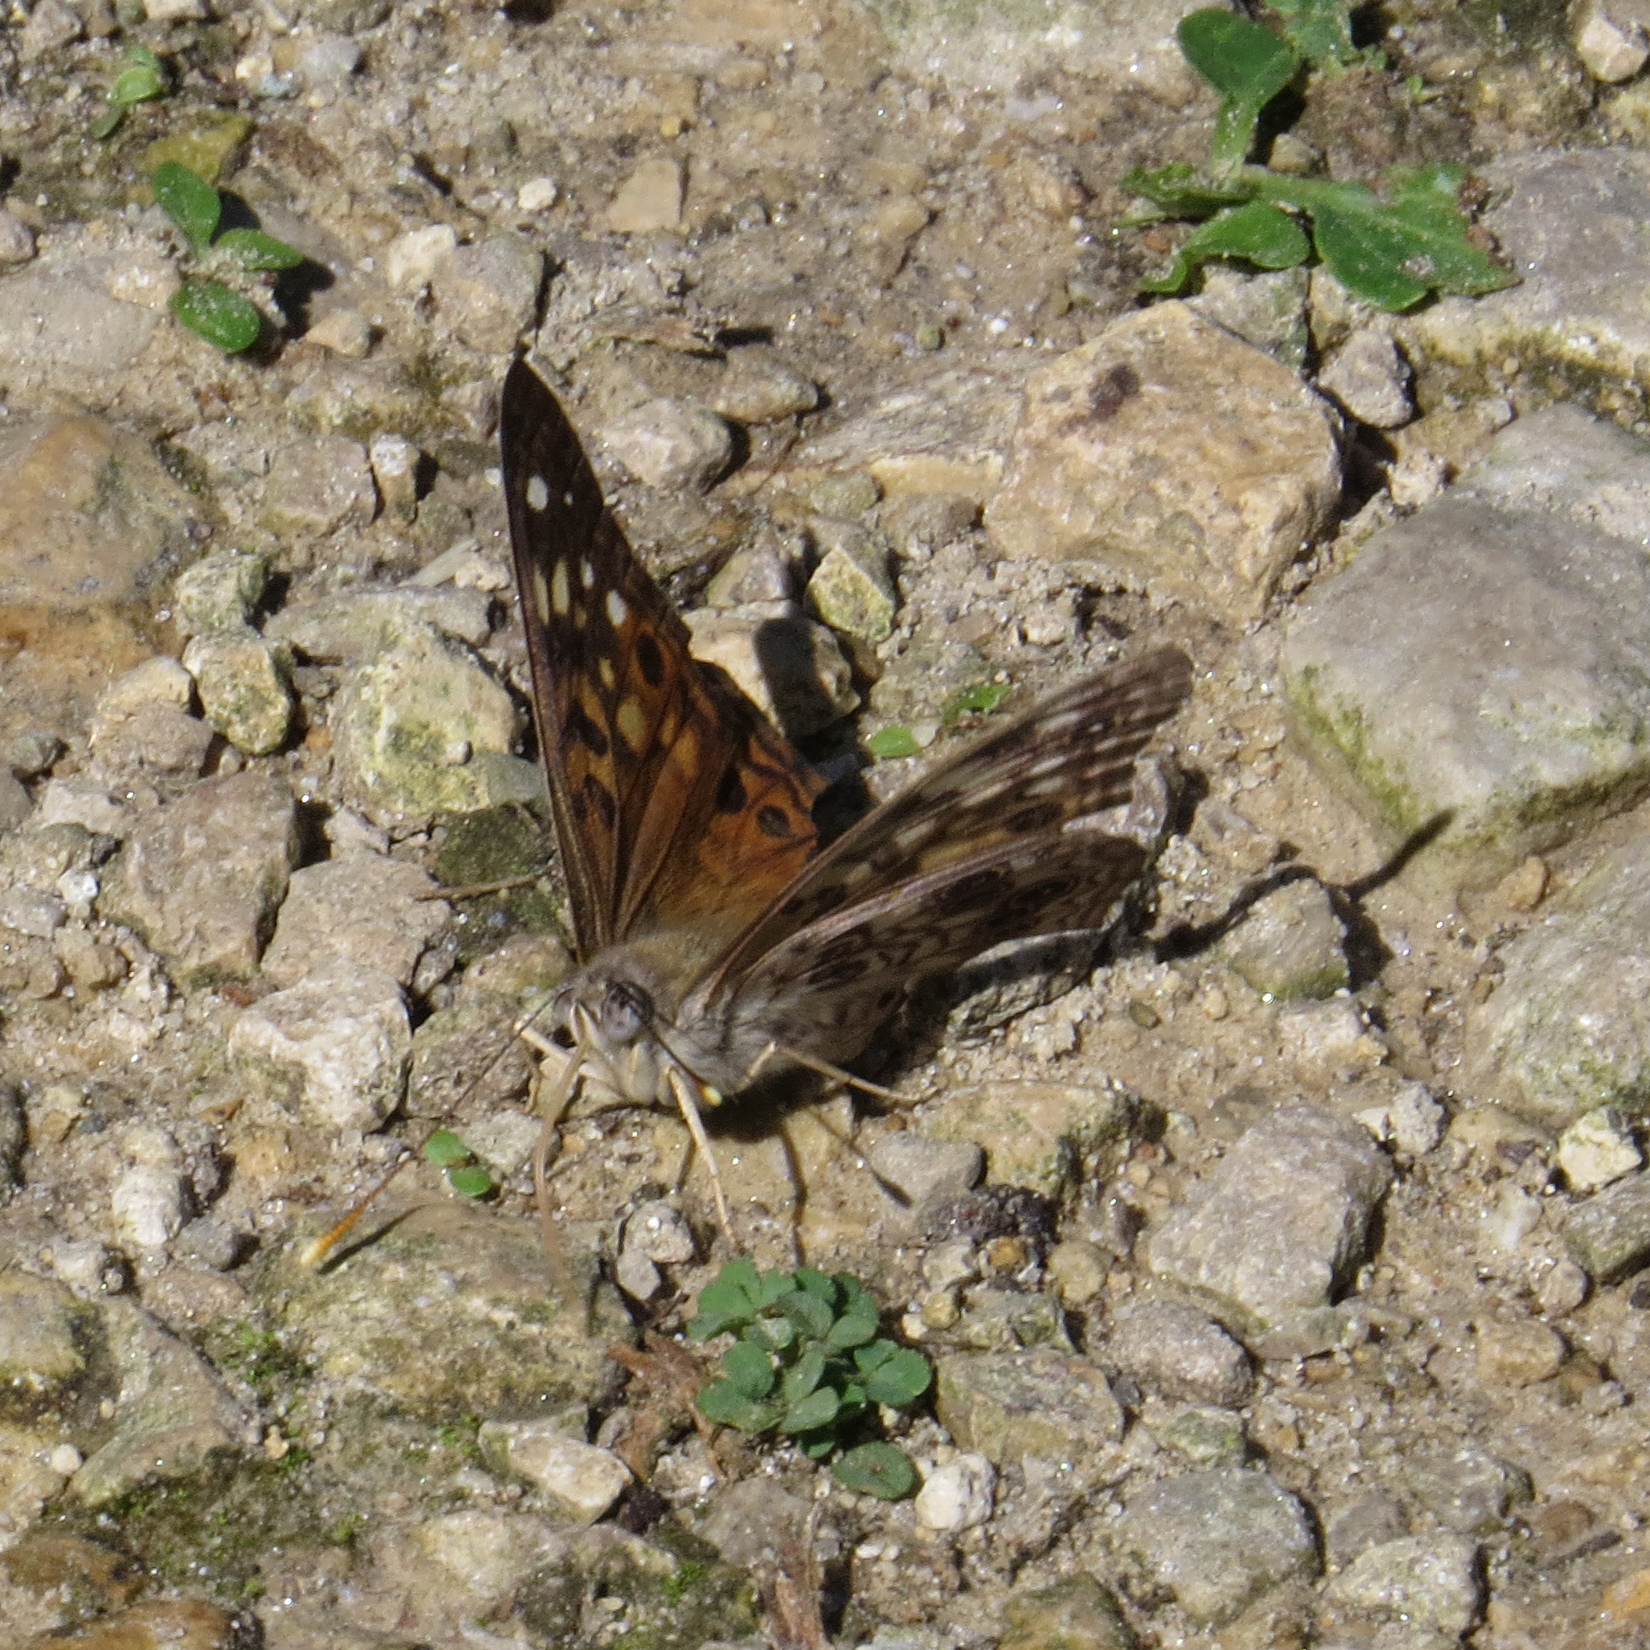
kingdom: Animalia
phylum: Arthropoda
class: Insecta
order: Lepidoptera
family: Nymphalidae
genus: Asterocampa
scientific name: Asterocampa celtis
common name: Hackberry emperor
